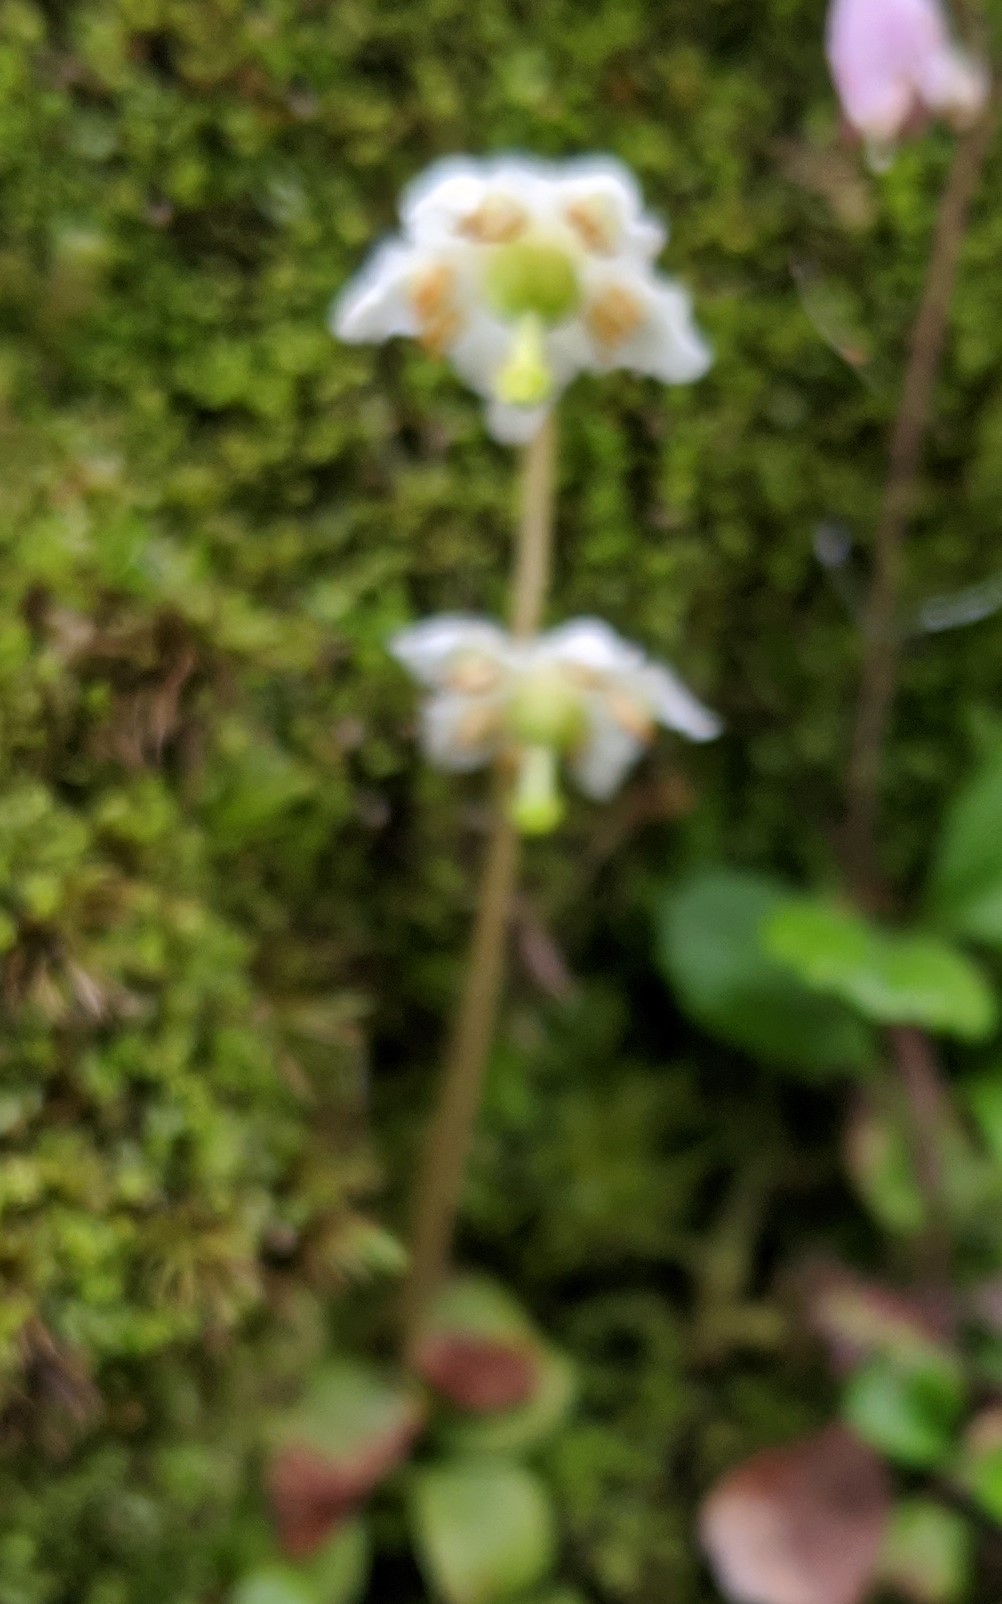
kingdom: Plantae
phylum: Tracheophyta
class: Magnoliopsida
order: Ericales
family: Ericaceae
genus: Moneses
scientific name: Moneses uniflora
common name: One-flowered wintergreen
